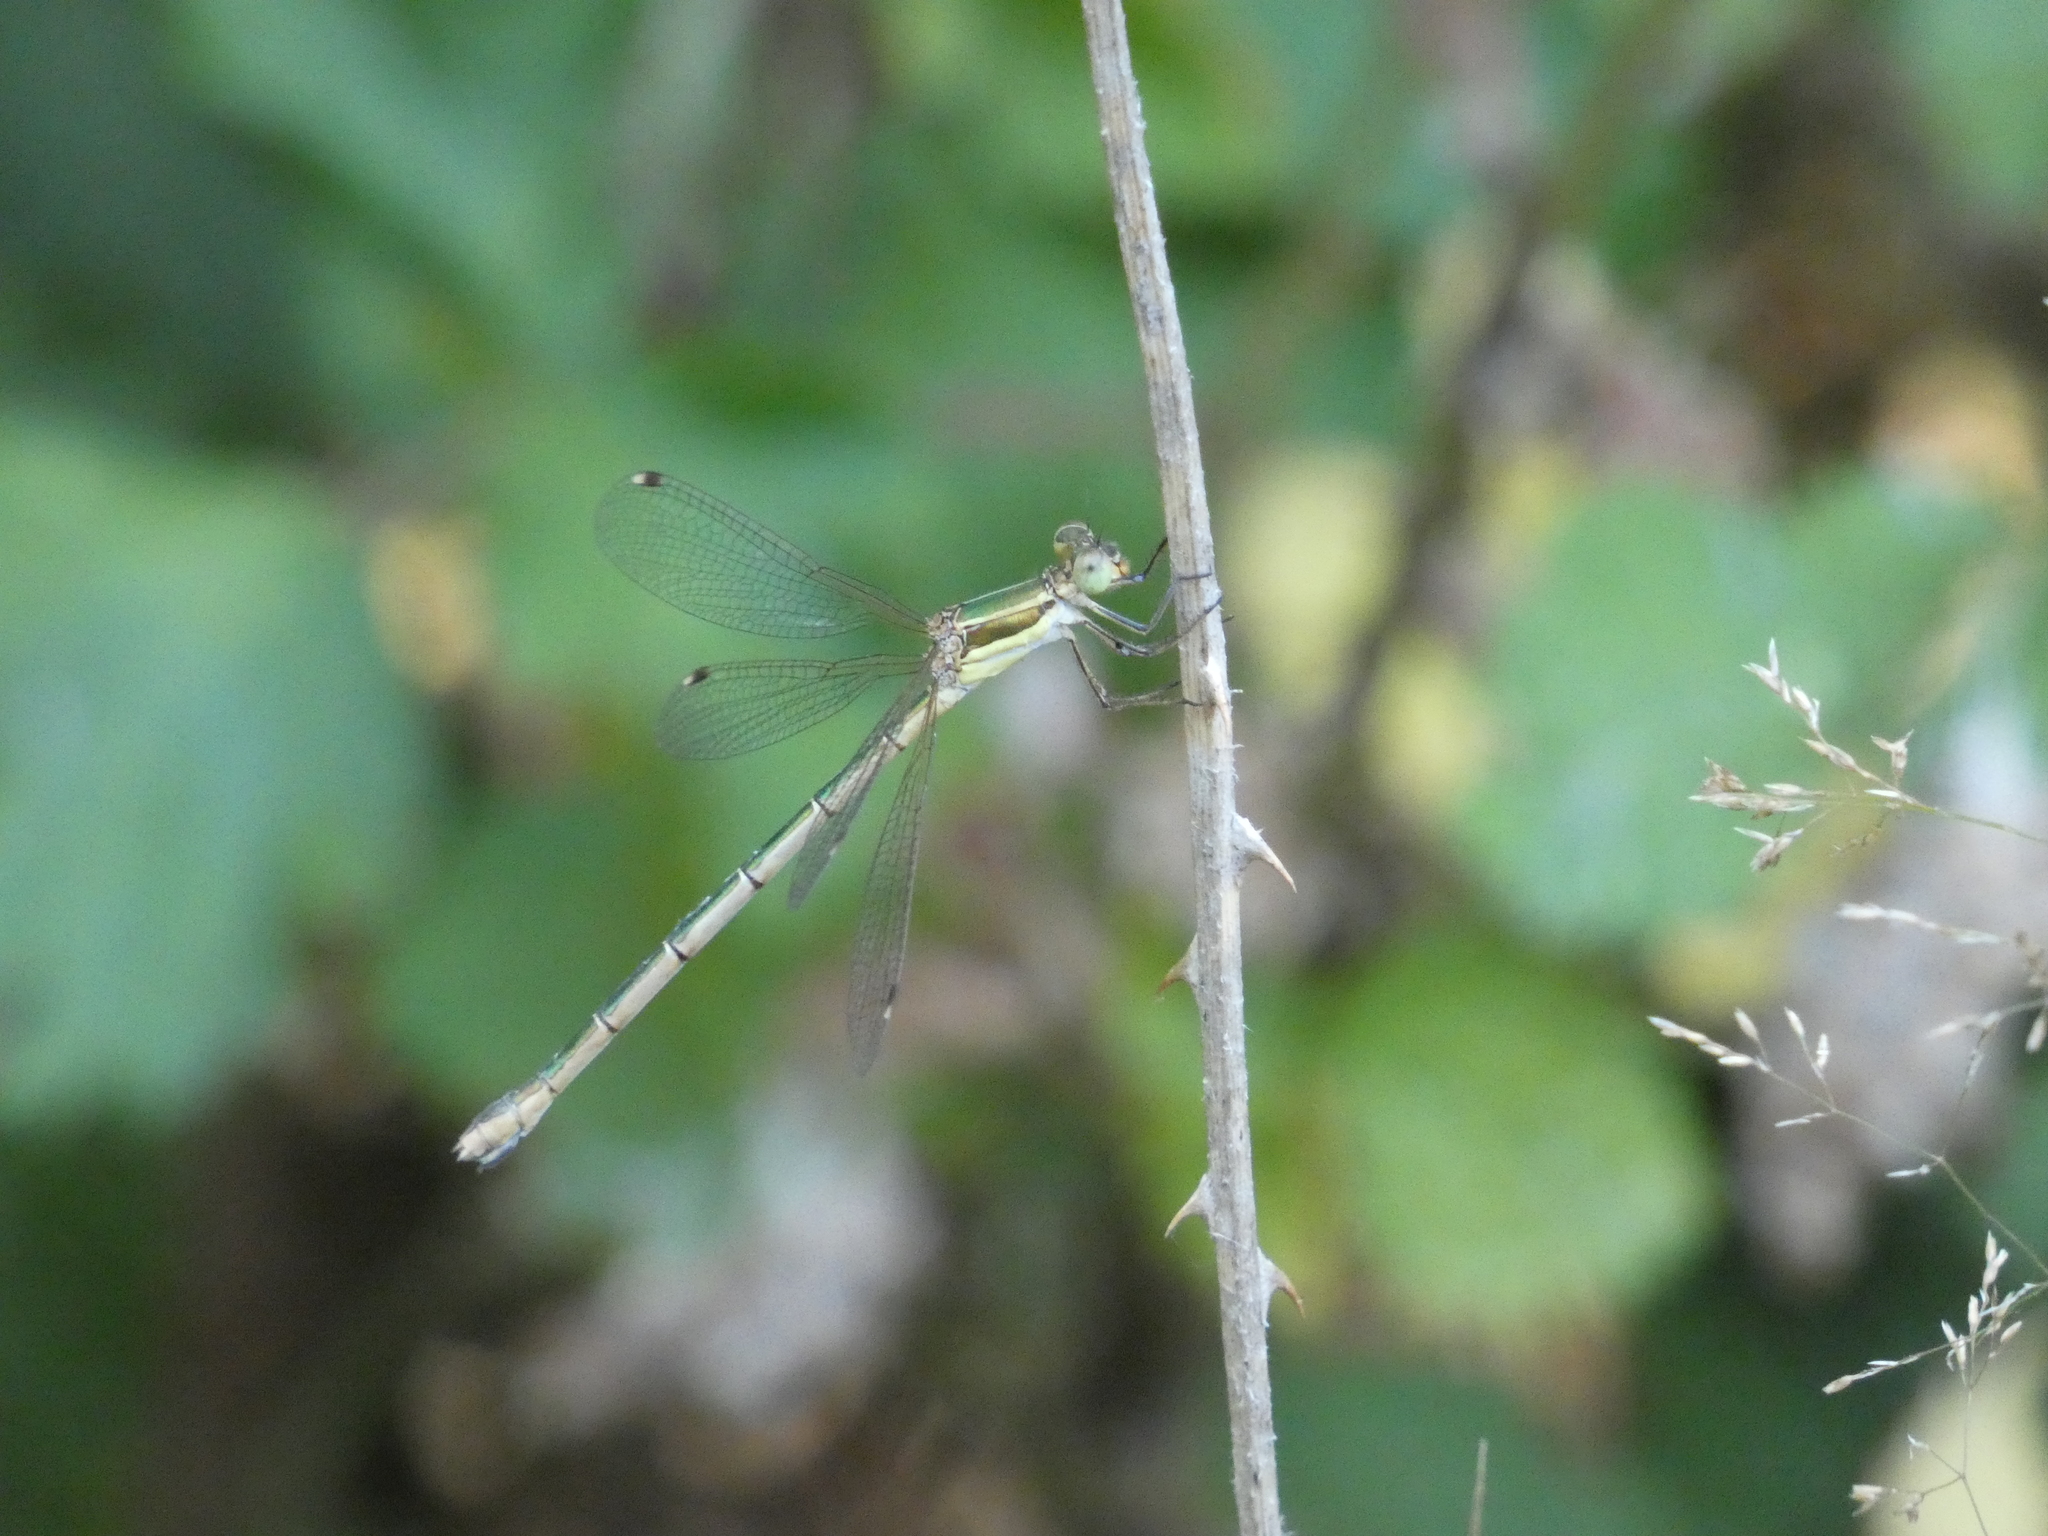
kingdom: Animalia
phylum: Arthropoda
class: Insecta
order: Odonata
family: Lestidae
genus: Lestes
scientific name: Lestes barbarus
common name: Migrant spreadwing
